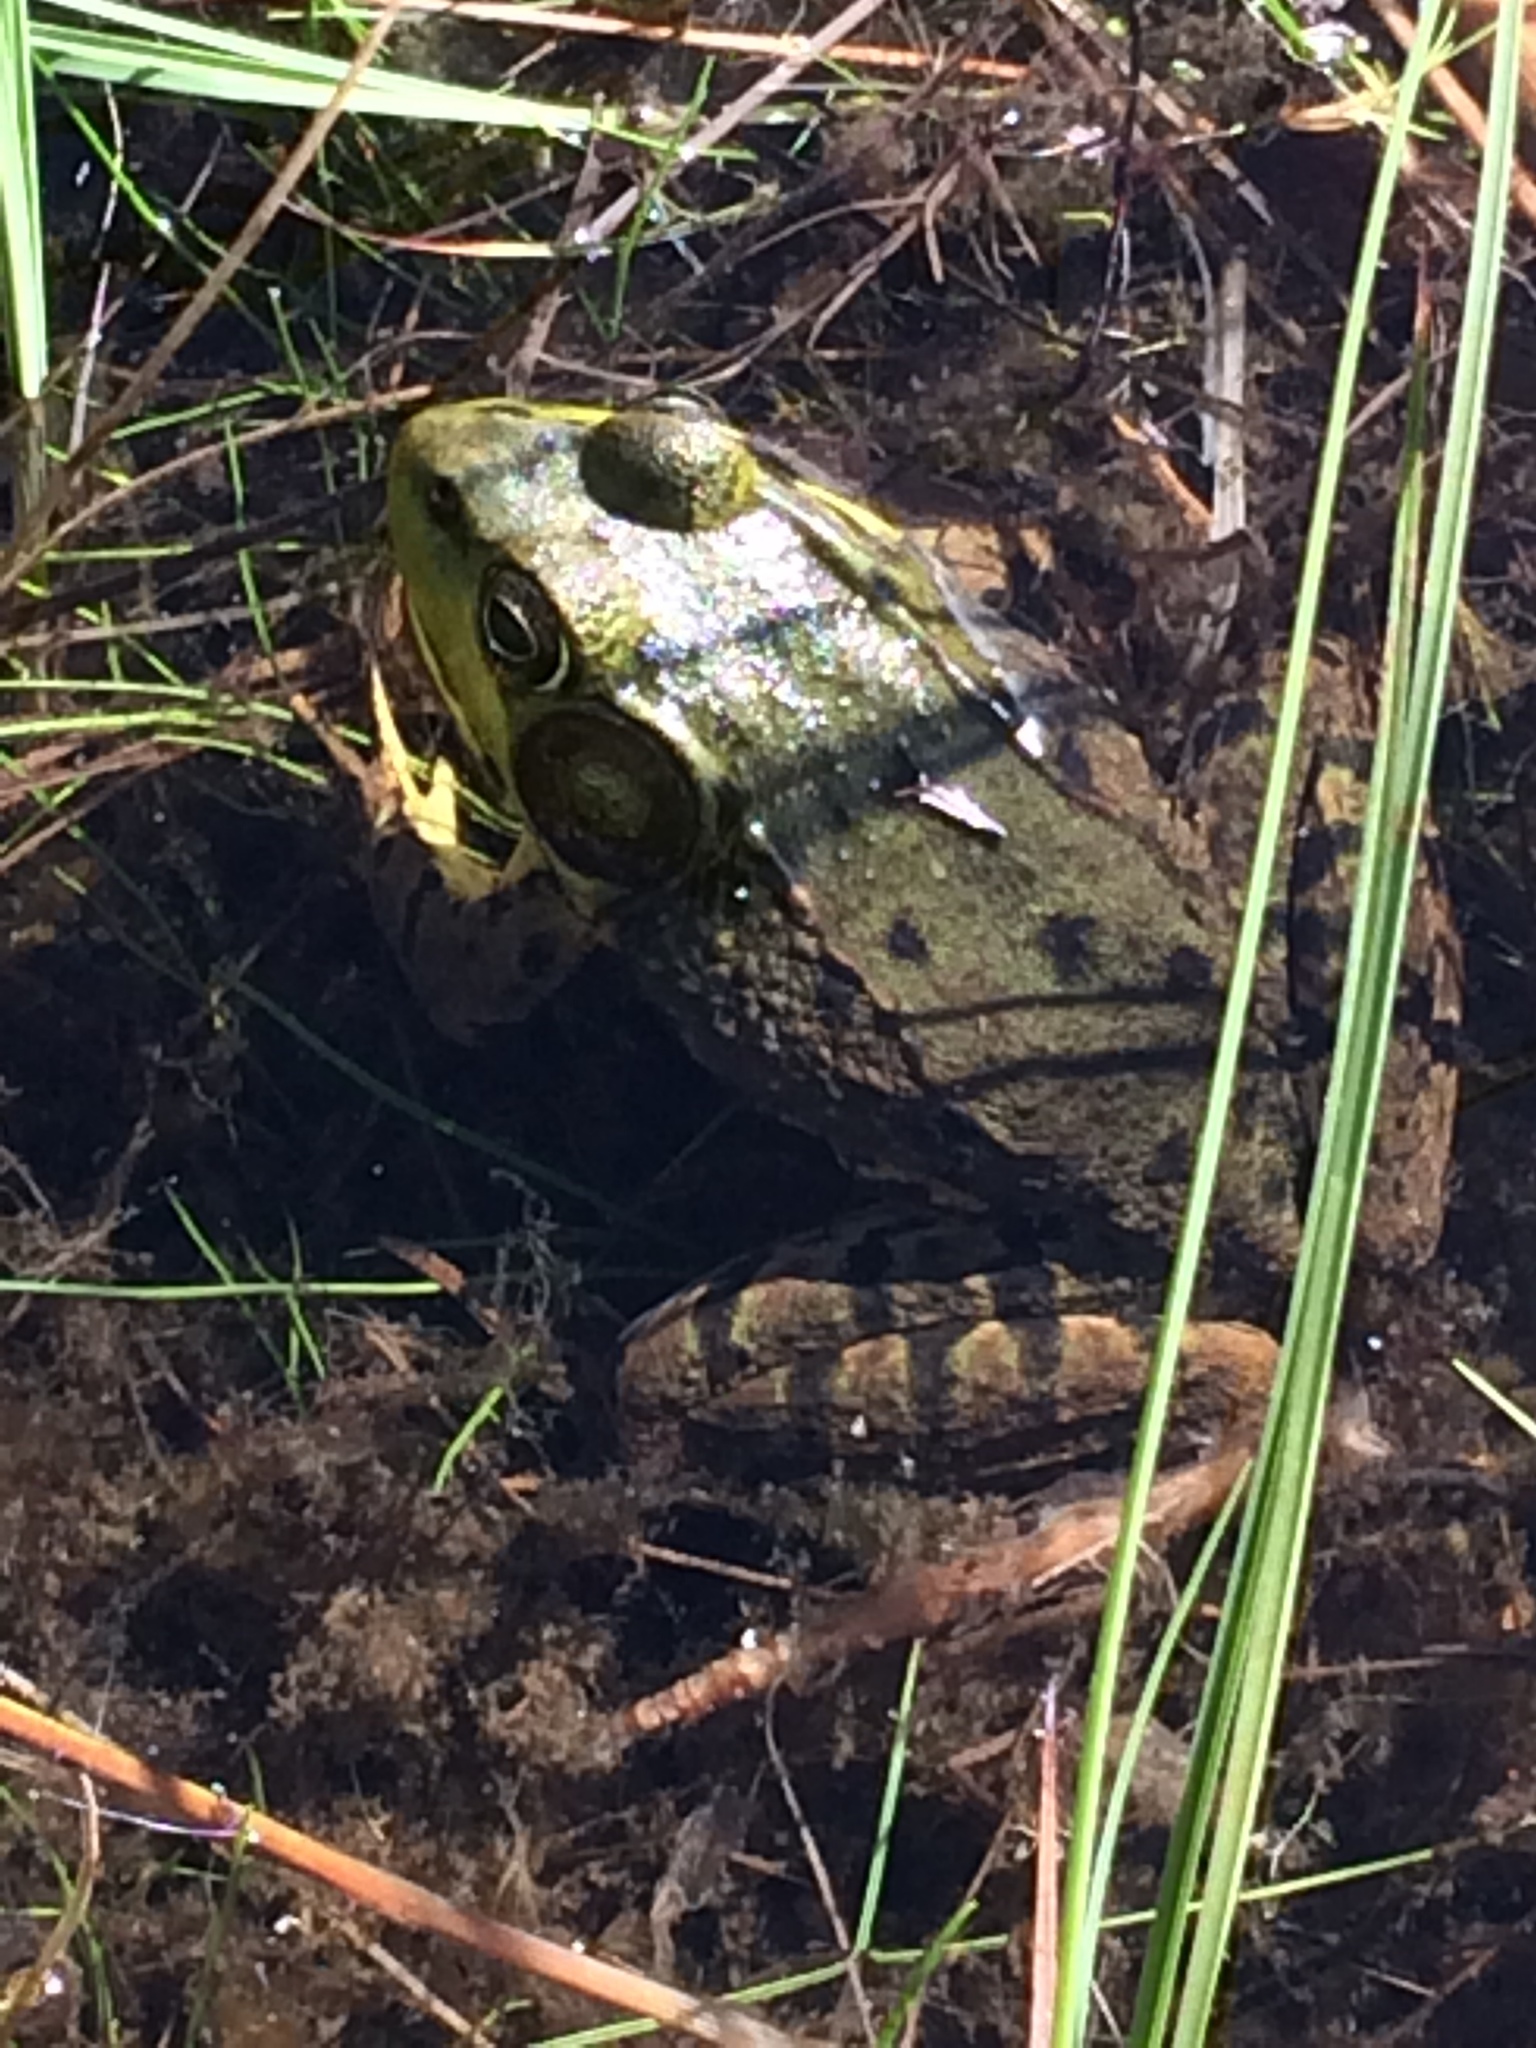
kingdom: Animalia
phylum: Chordata
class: Amphibia
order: Anura
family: Ranidae
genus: Lithobates
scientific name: Lithobates clamitans
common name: Green frog
